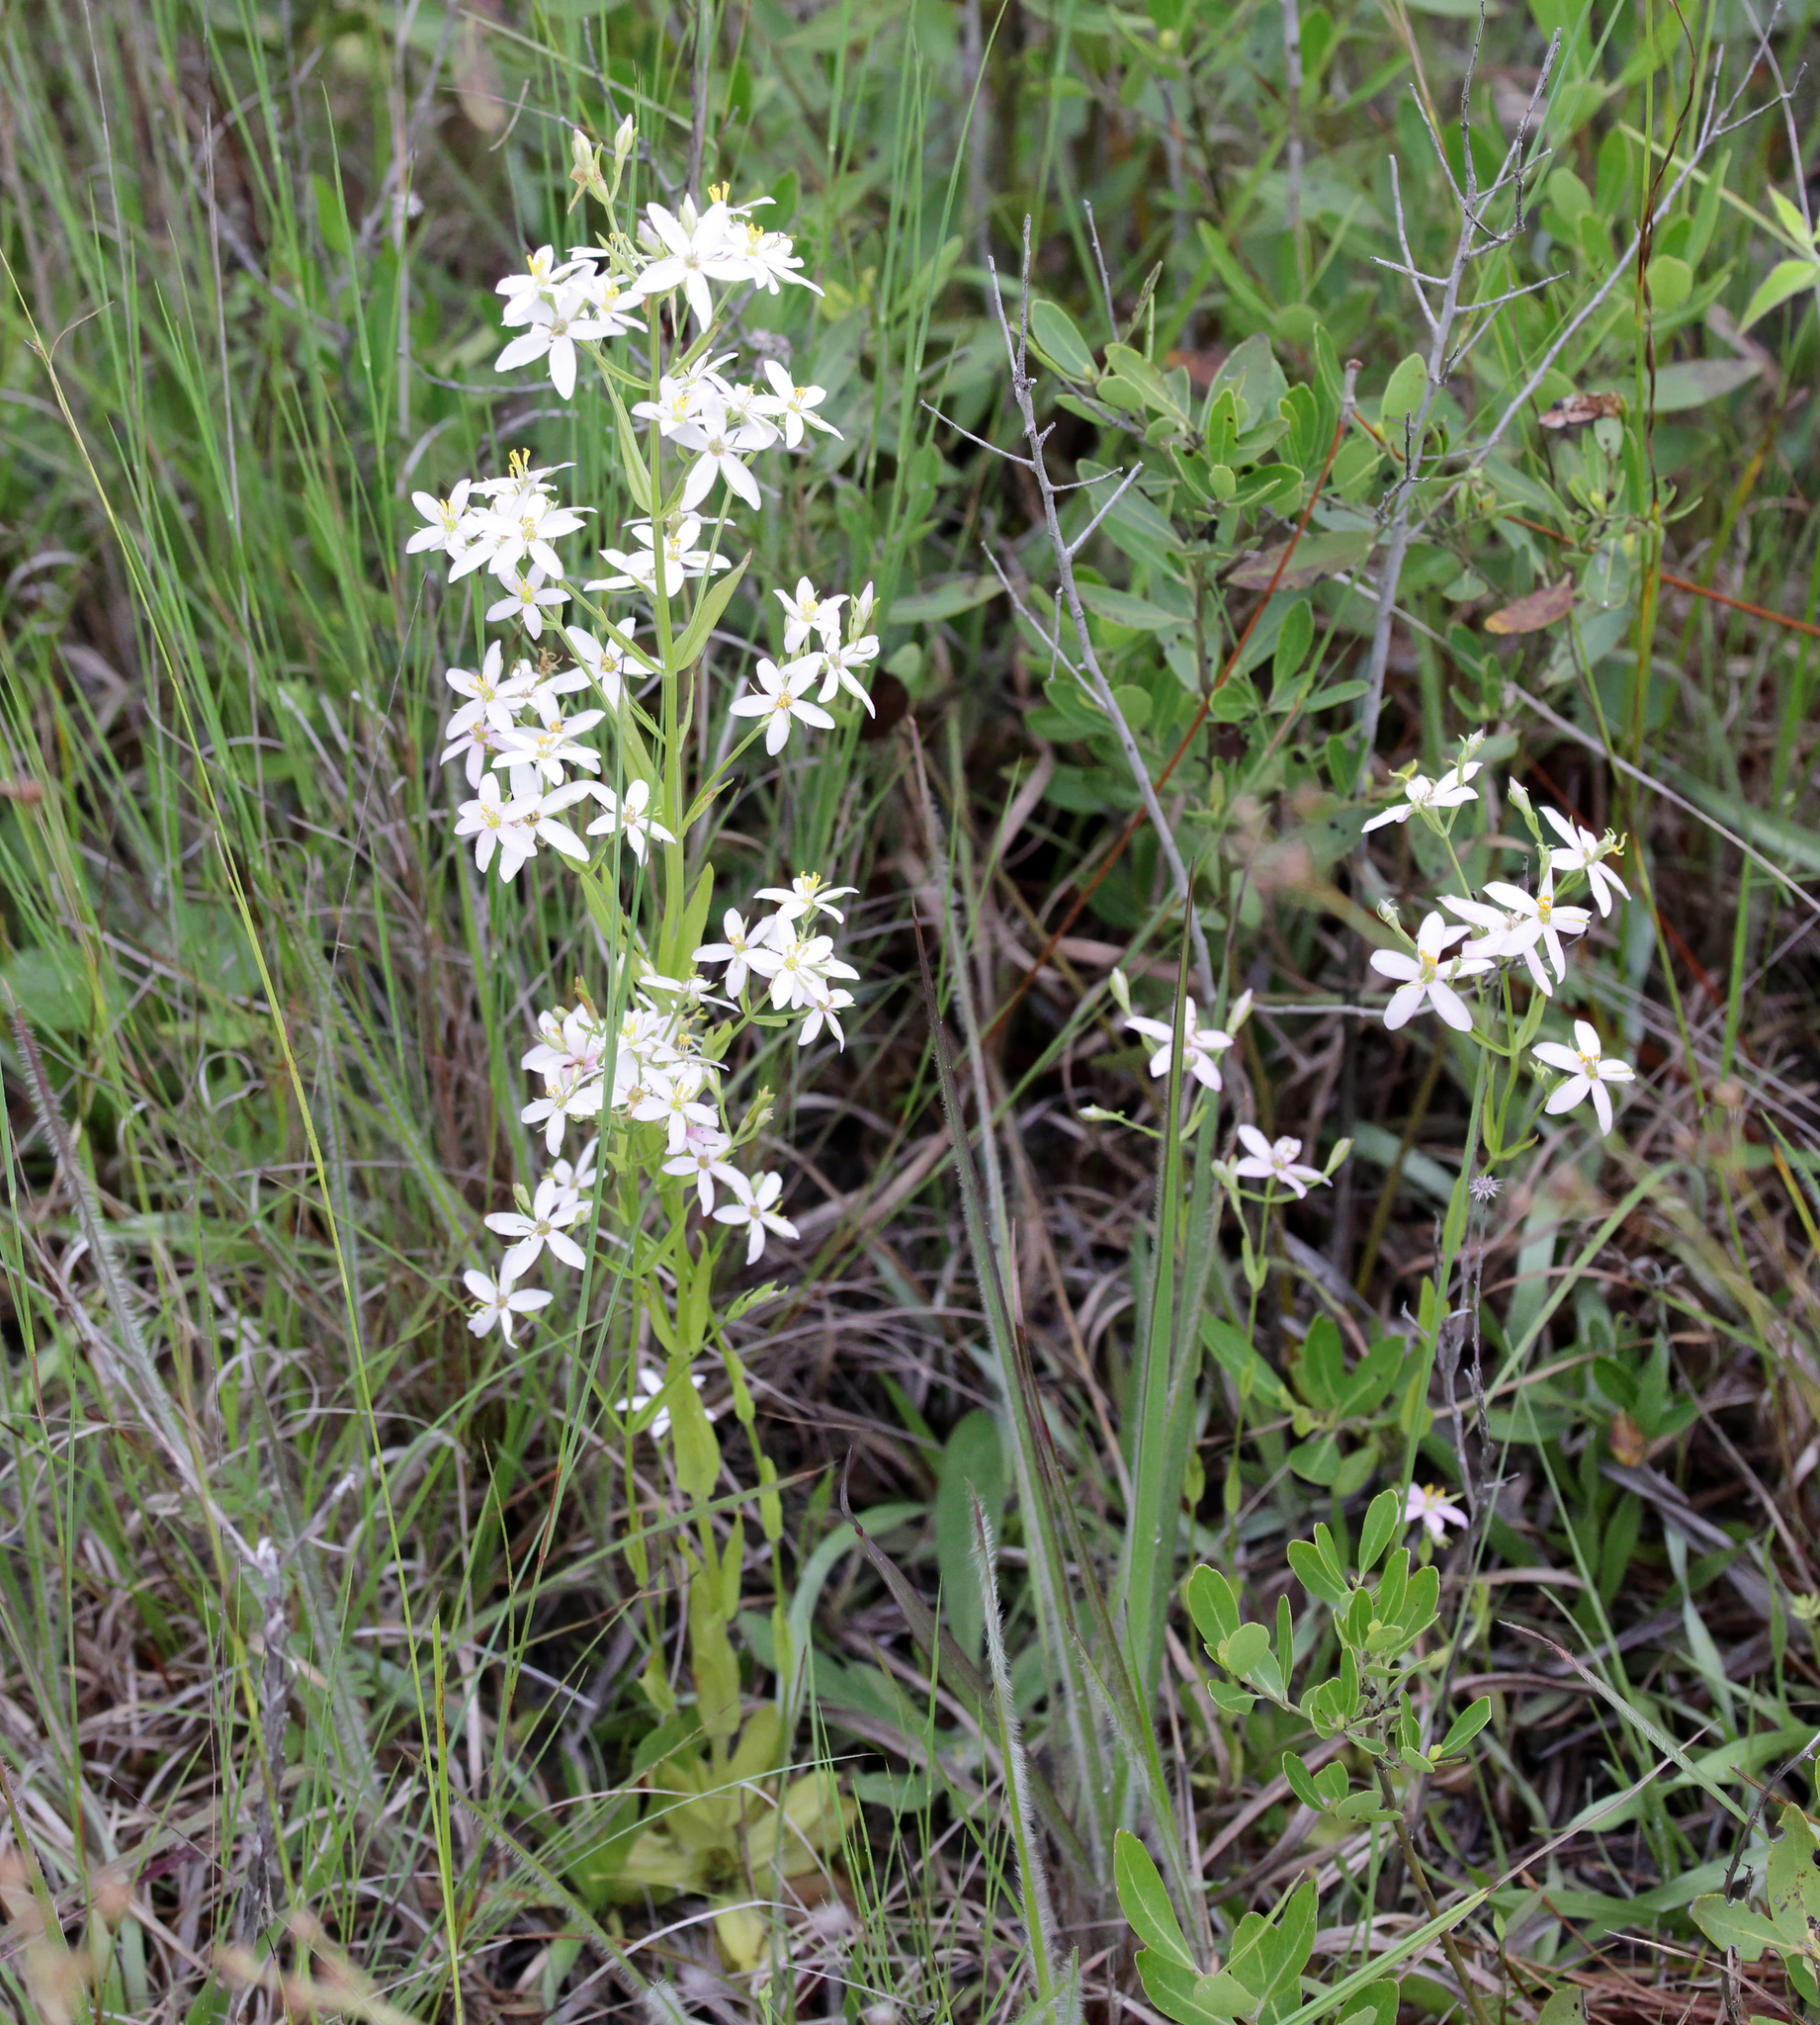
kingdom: Plantae
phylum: Tracheophyta
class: Magnoliopsida
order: Gentianales
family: Gentianaceae
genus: Sabatia
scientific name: Sabatia brachiata
